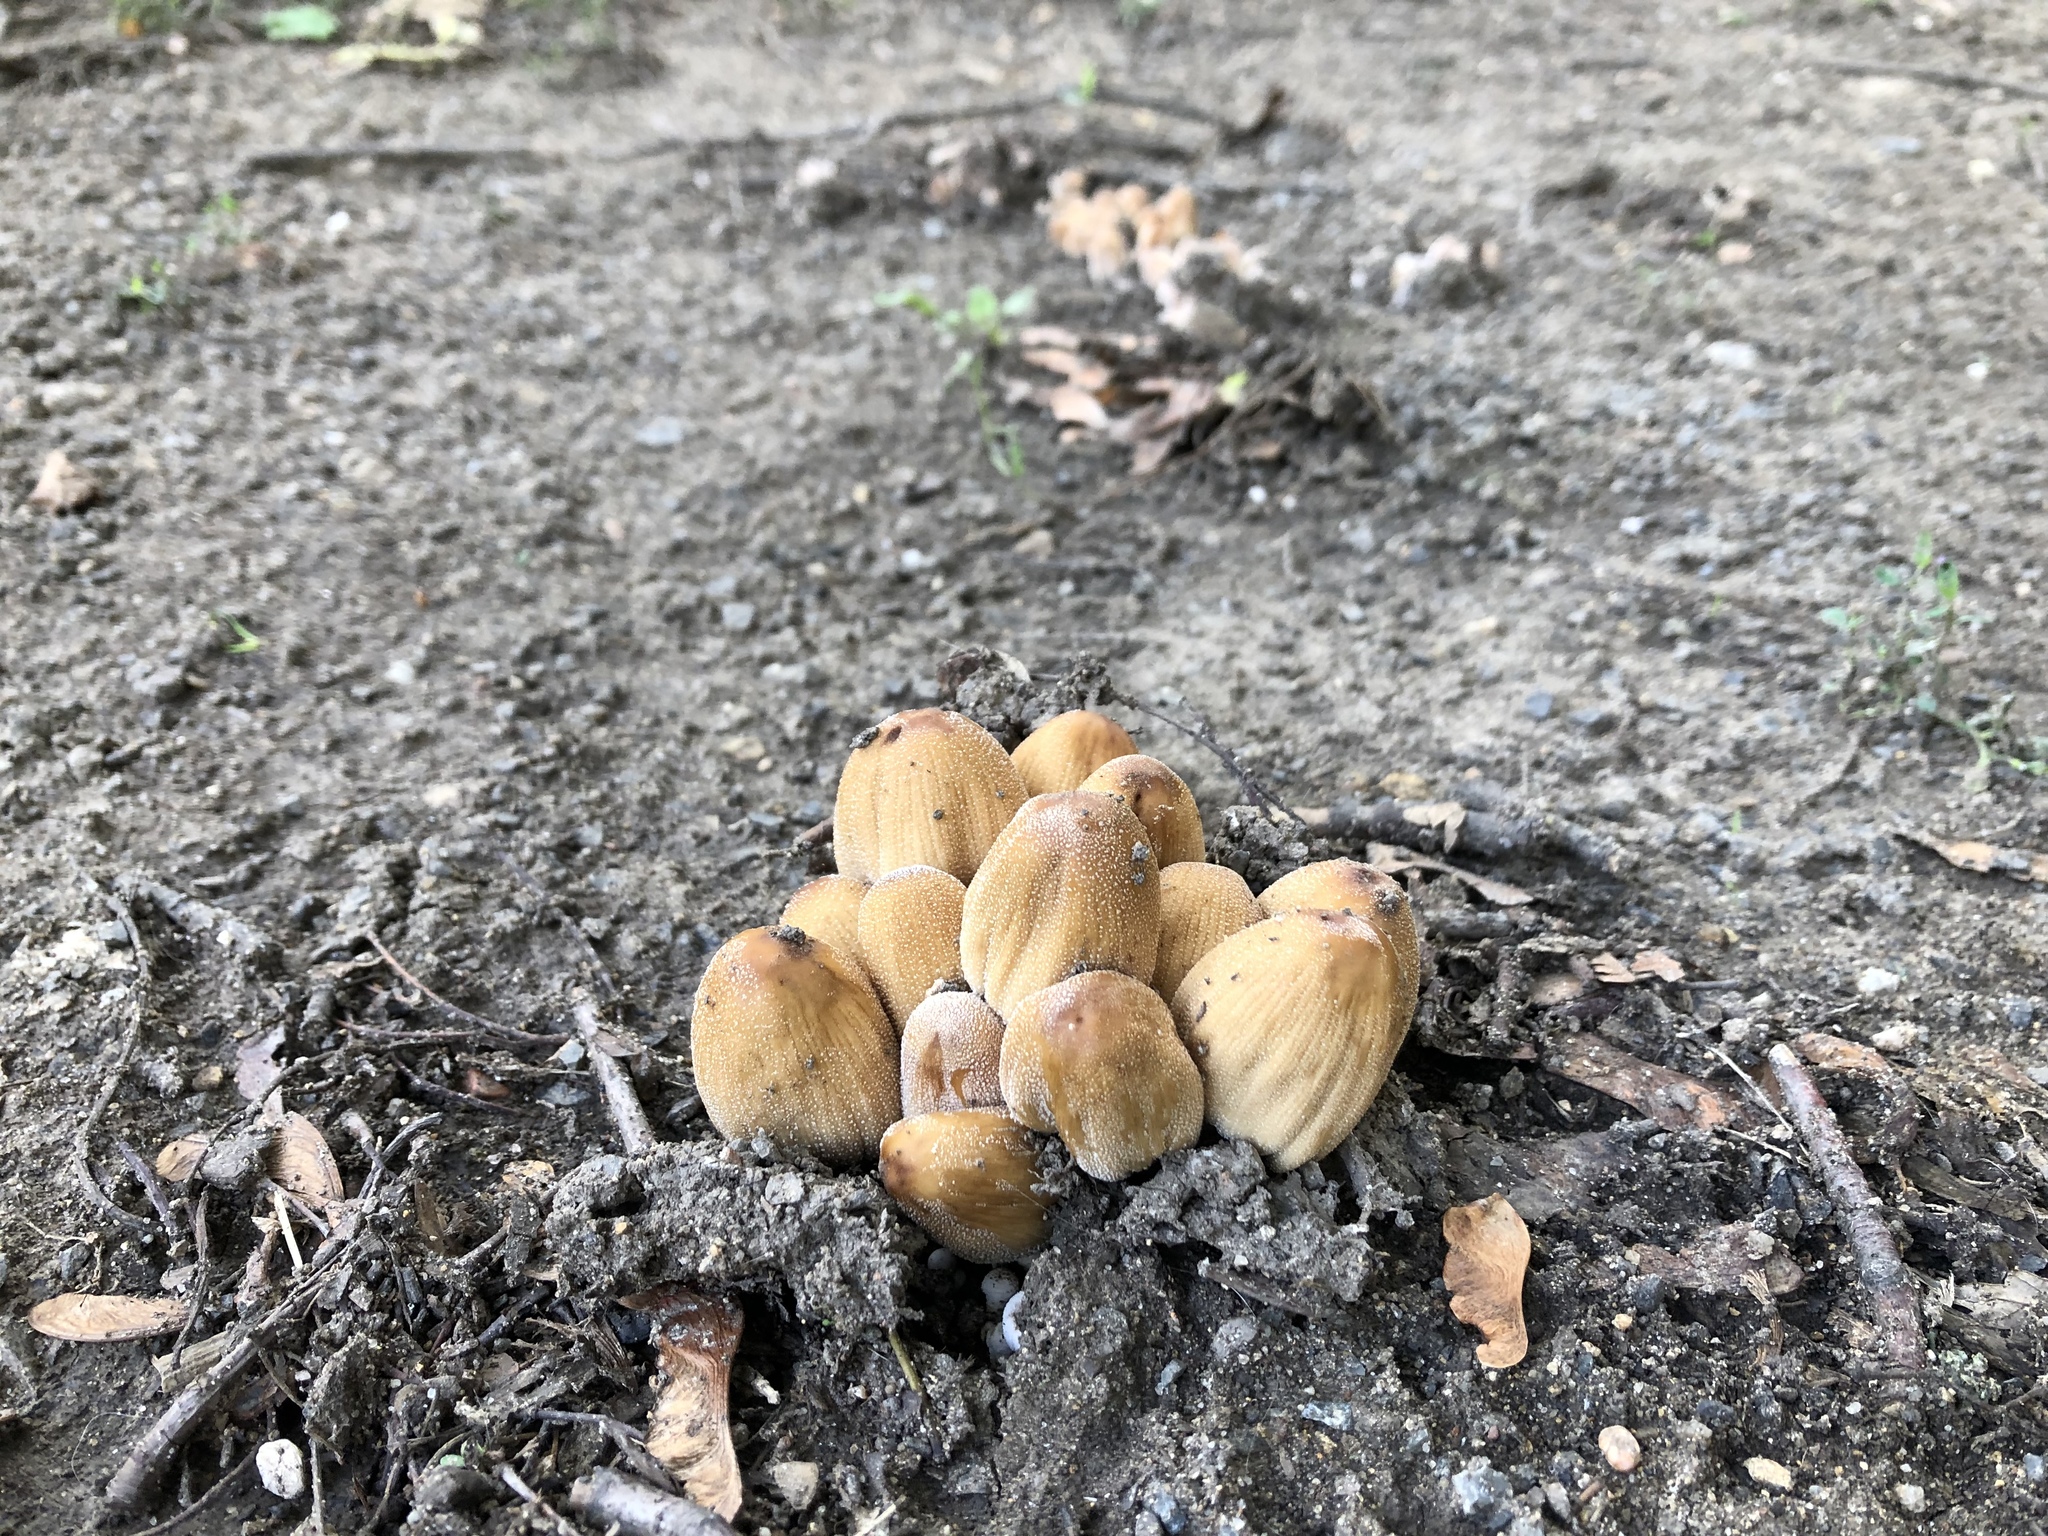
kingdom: Fungi
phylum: Basidiomycota
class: Agaricomycetes
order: Agaricales
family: Psathyrellaceae
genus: Coprinellus
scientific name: Coprinellus micaceus
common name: Glistening ink-cap
